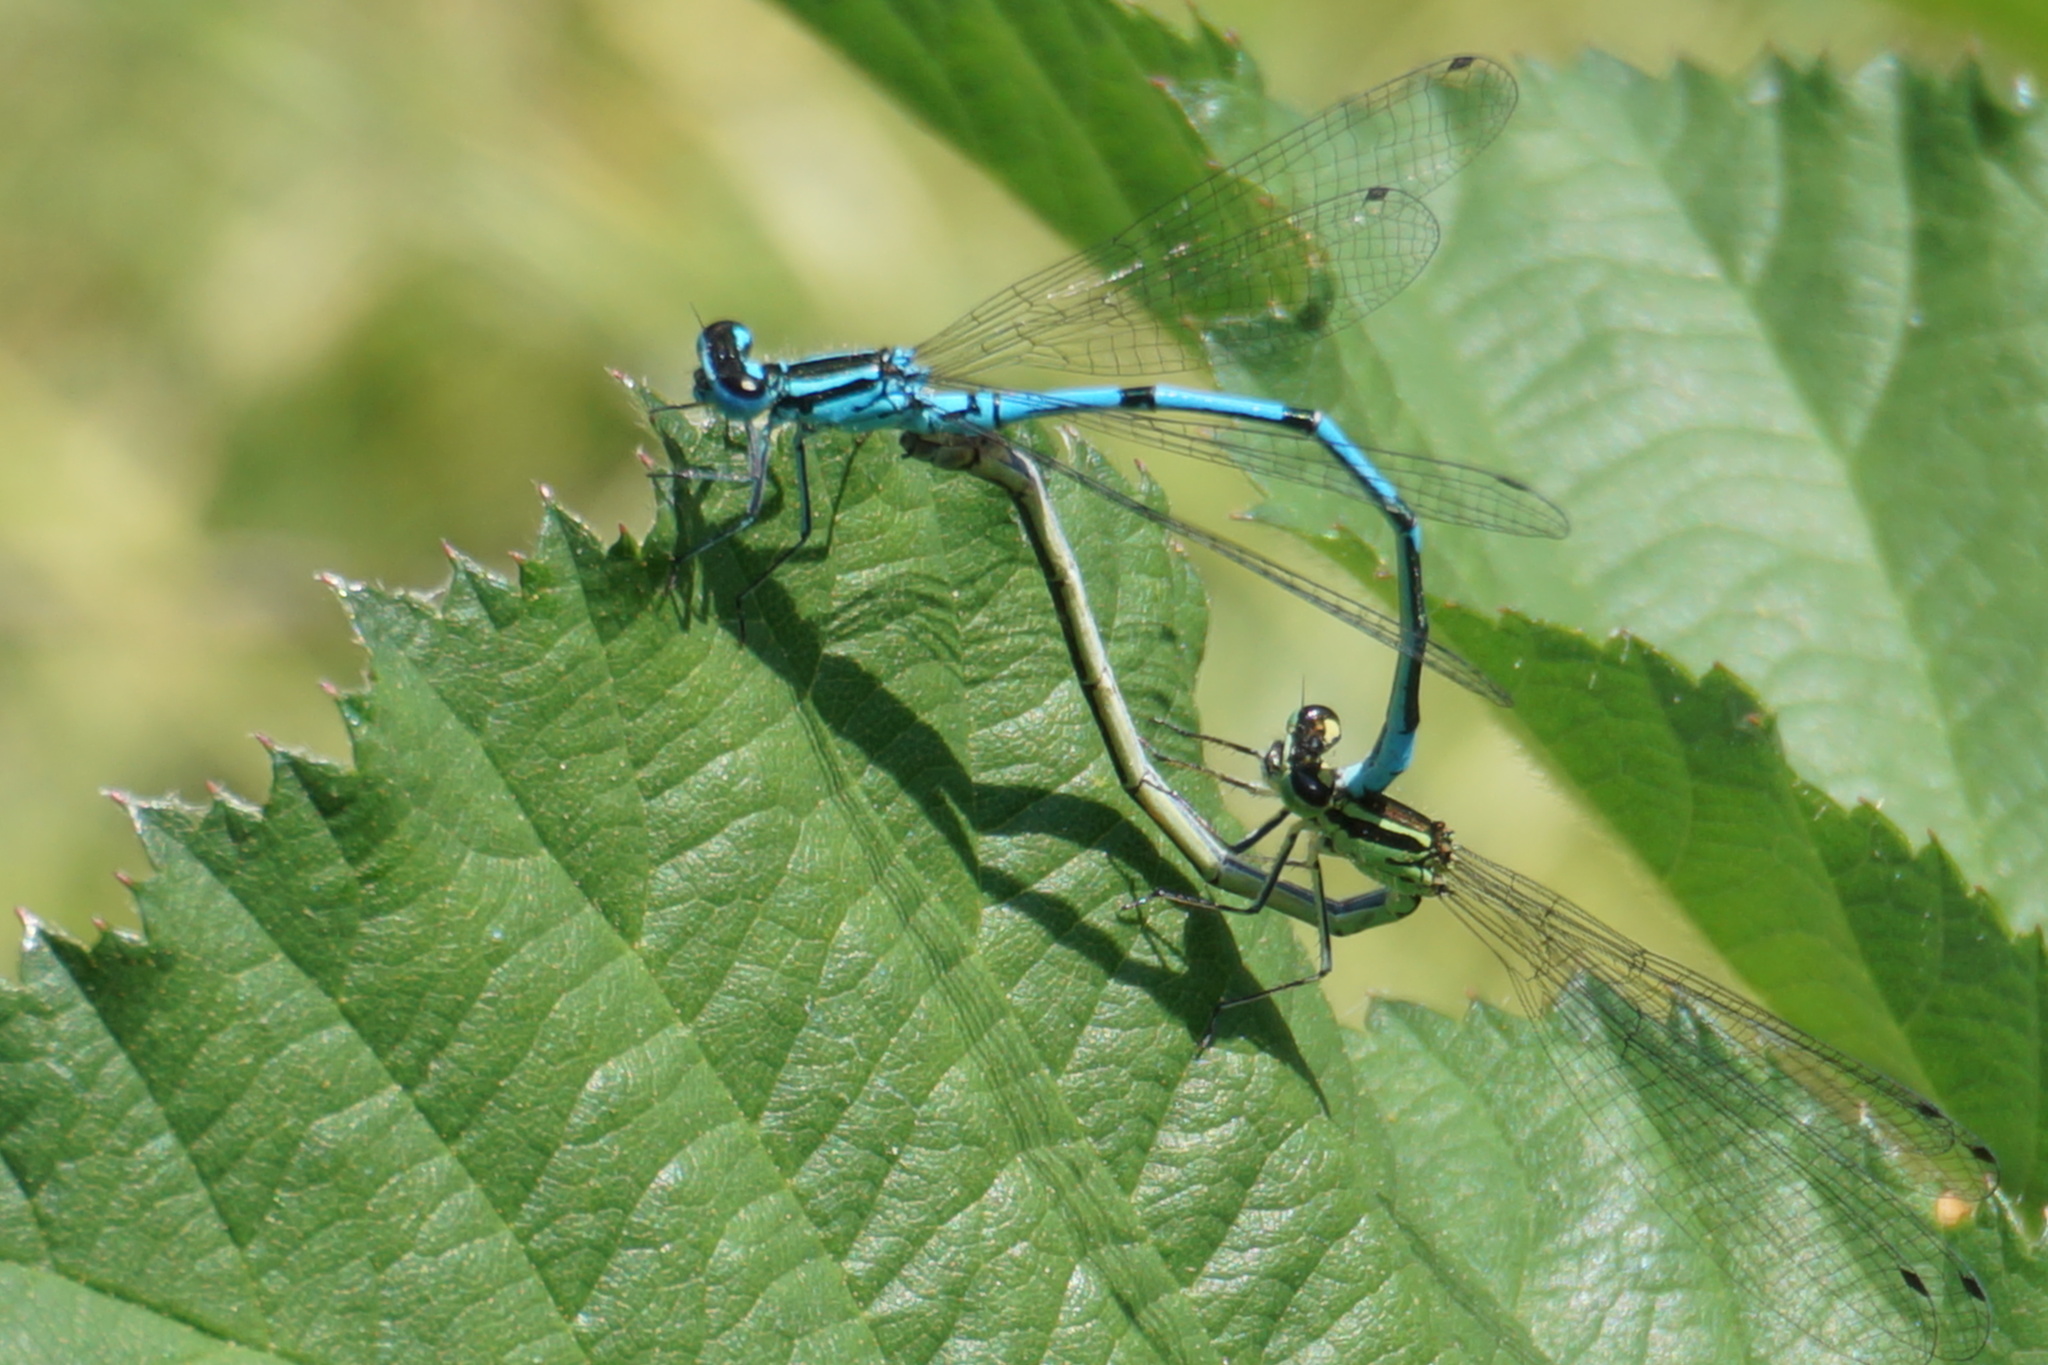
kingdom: Animalia
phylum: Arthropoda
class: Insecta
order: Odonata
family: Coenagrionidae
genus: Coenagrion
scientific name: Coenagrion puella
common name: Azure damselfly
